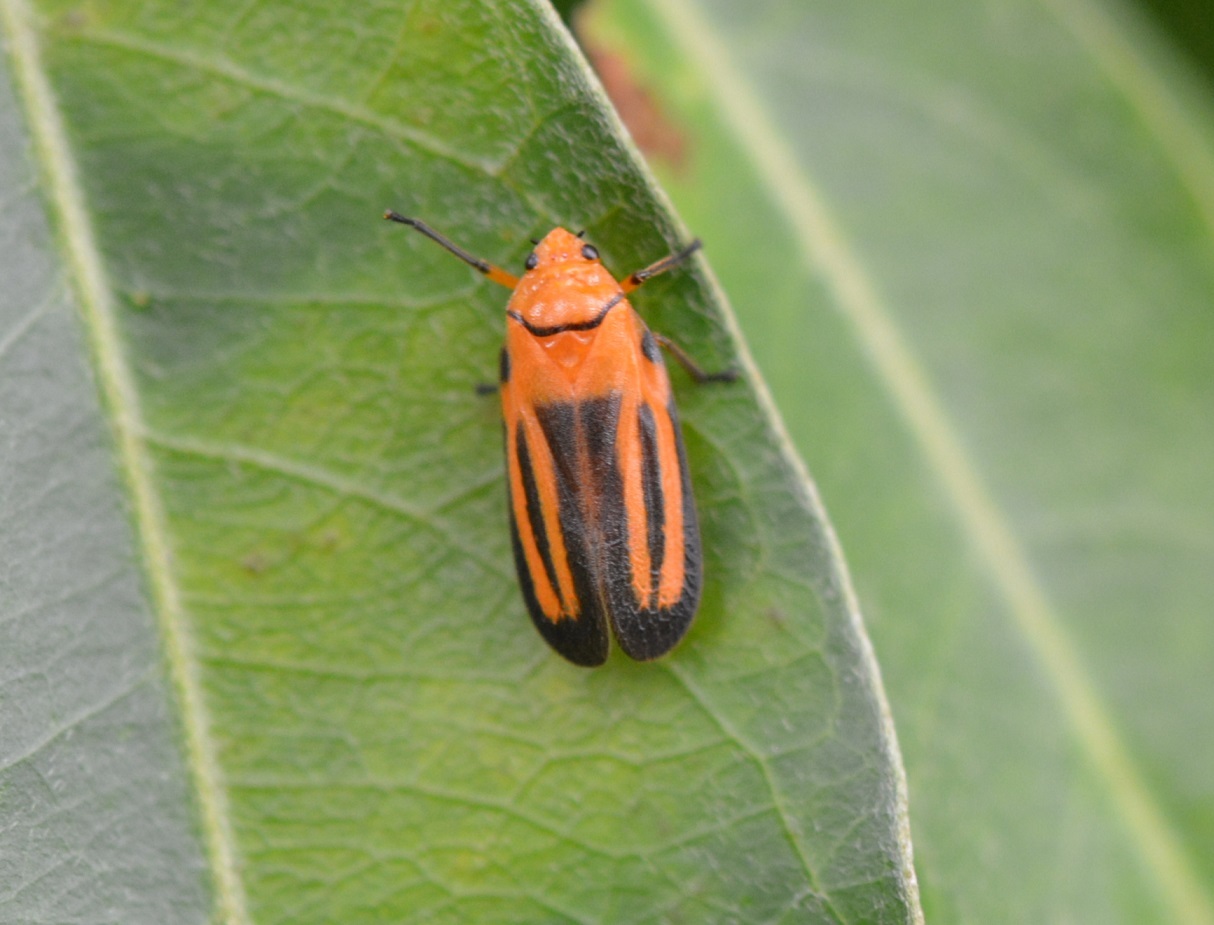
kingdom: Animalia
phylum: Arthropoda
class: Insecta
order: Hemiptera
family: Cercopidae
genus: Ocoaxo
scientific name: Ocoaxo punctus
